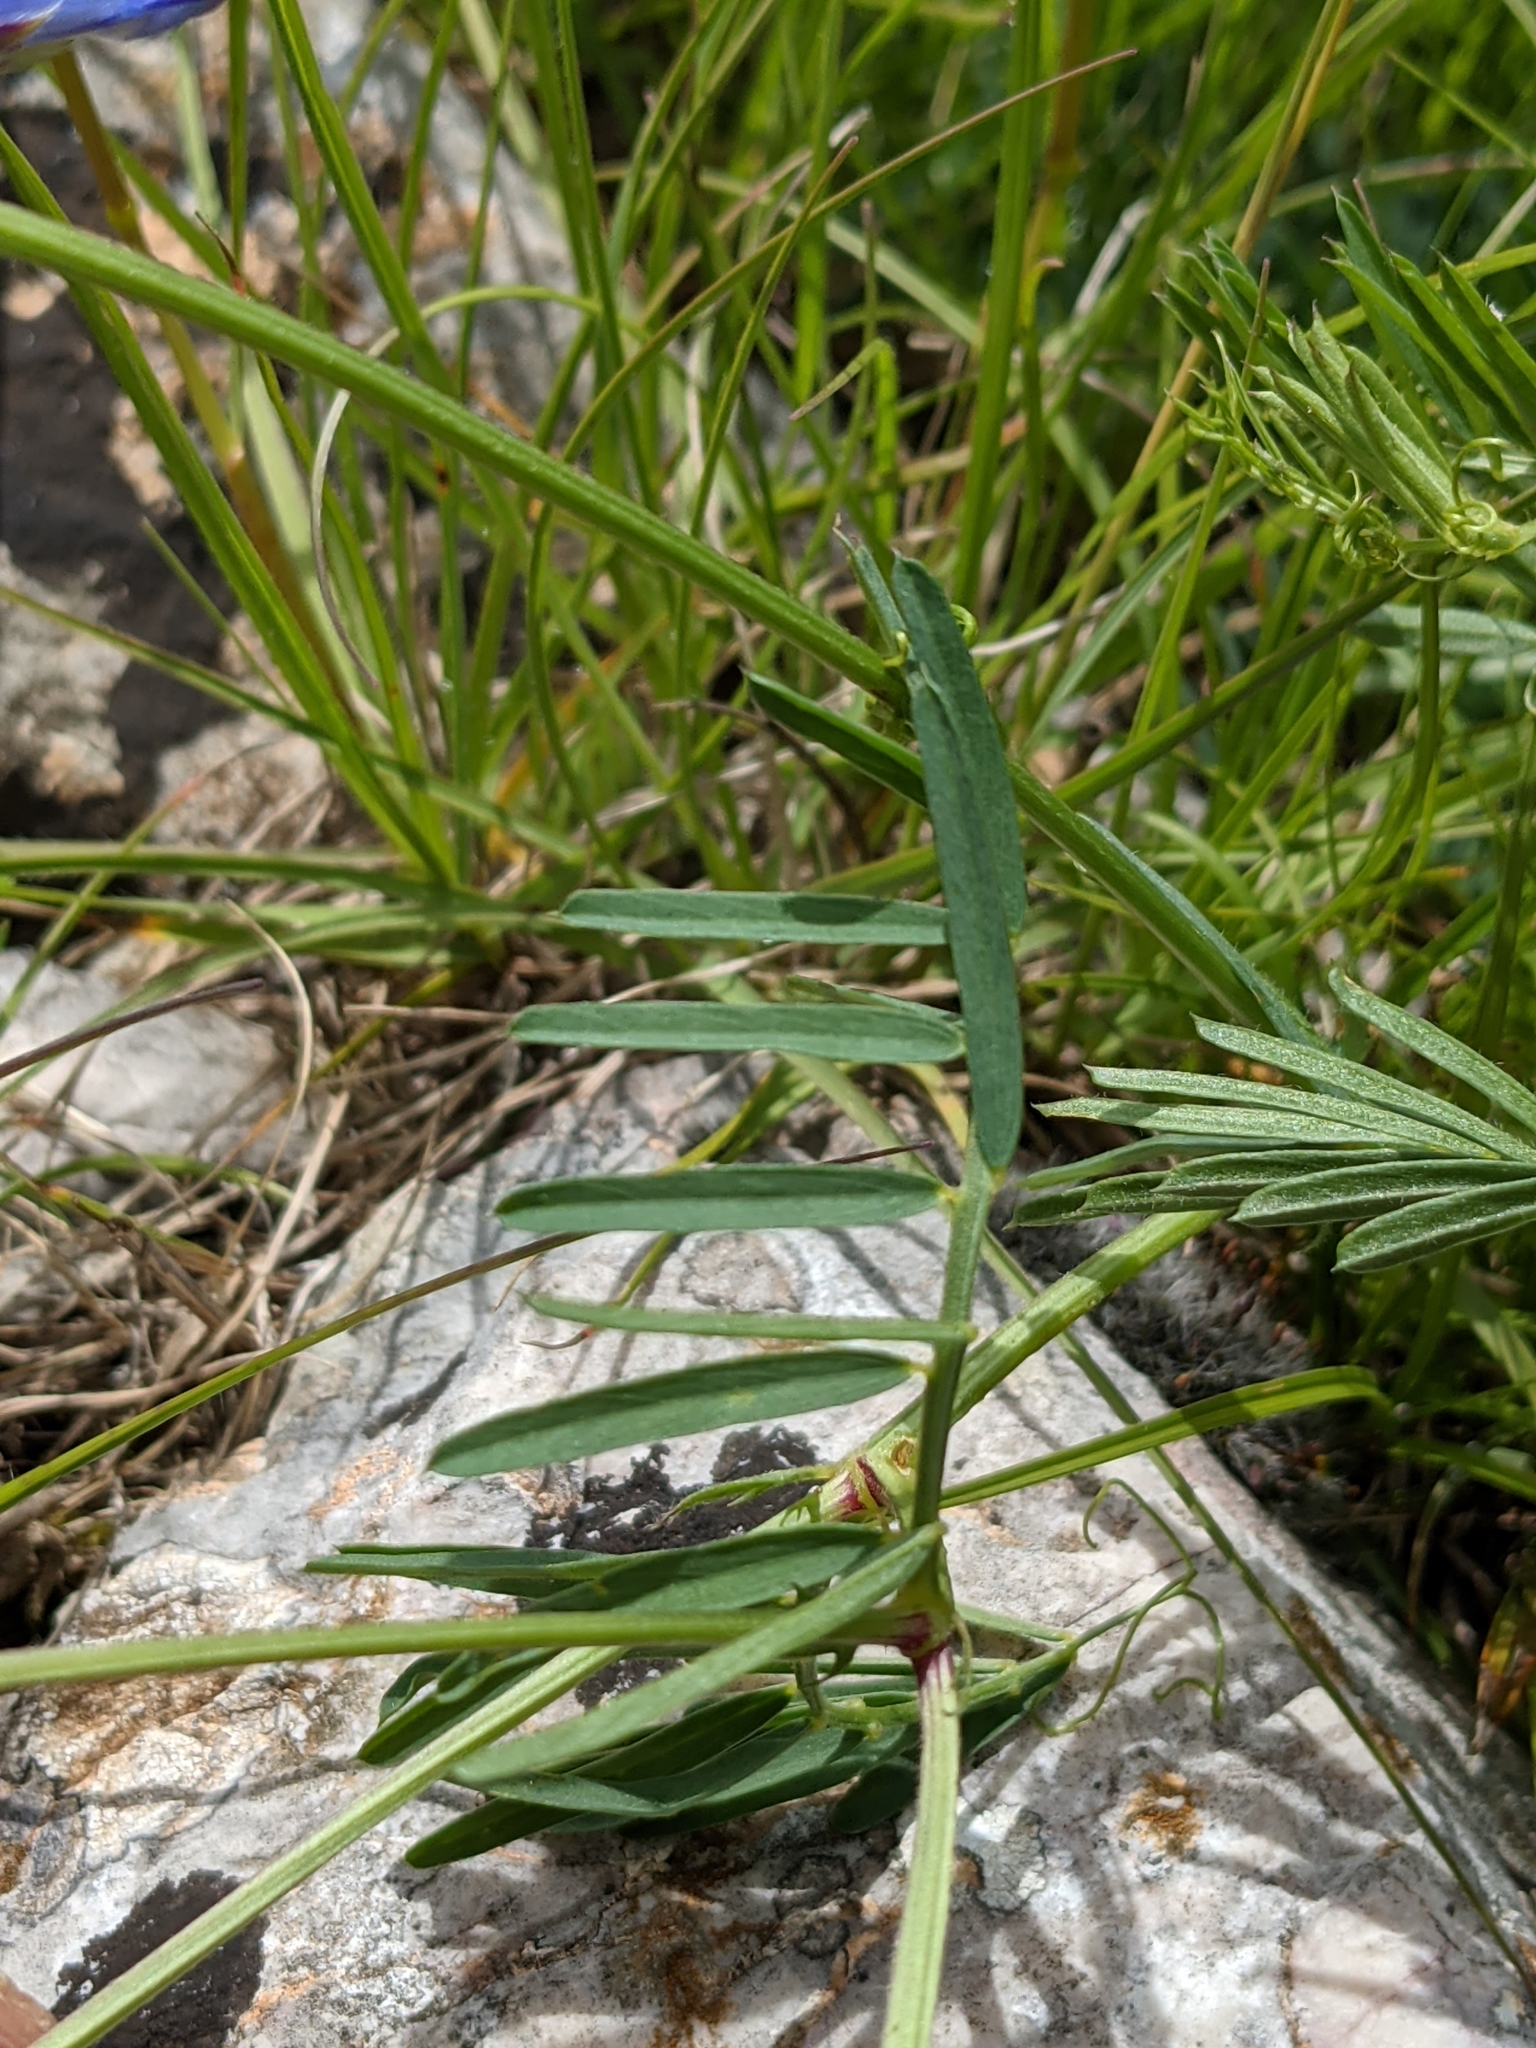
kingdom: Plantae
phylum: Tracheophyta
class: Magnoliopsida
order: Fabales
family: Fabaceae
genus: Vicia
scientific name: Vicia onobrychioides
